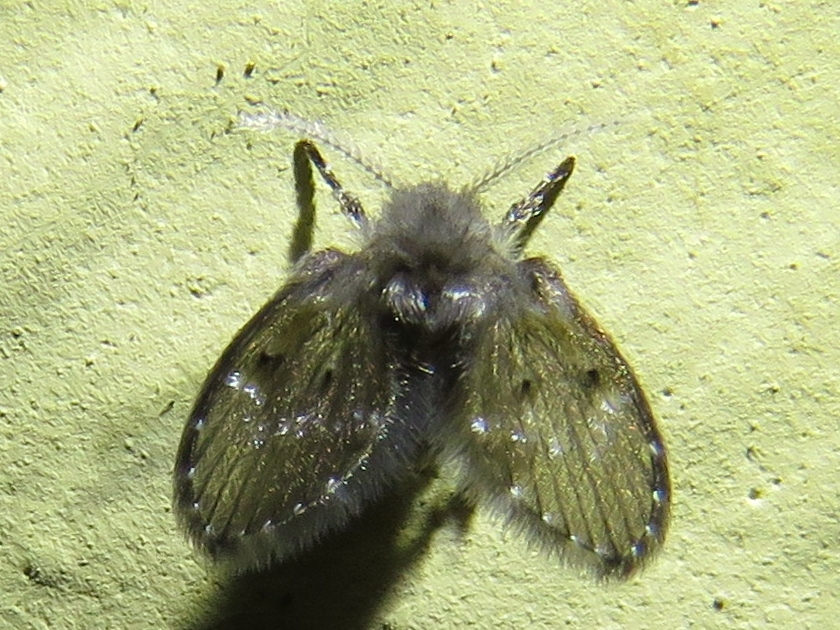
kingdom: Animalia
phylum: Arthropoda
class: Insecta
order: Diptera
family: Psychodidae
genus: Clogmia
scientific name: Clogmia albipunctatus
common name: White-spotted moth fly
